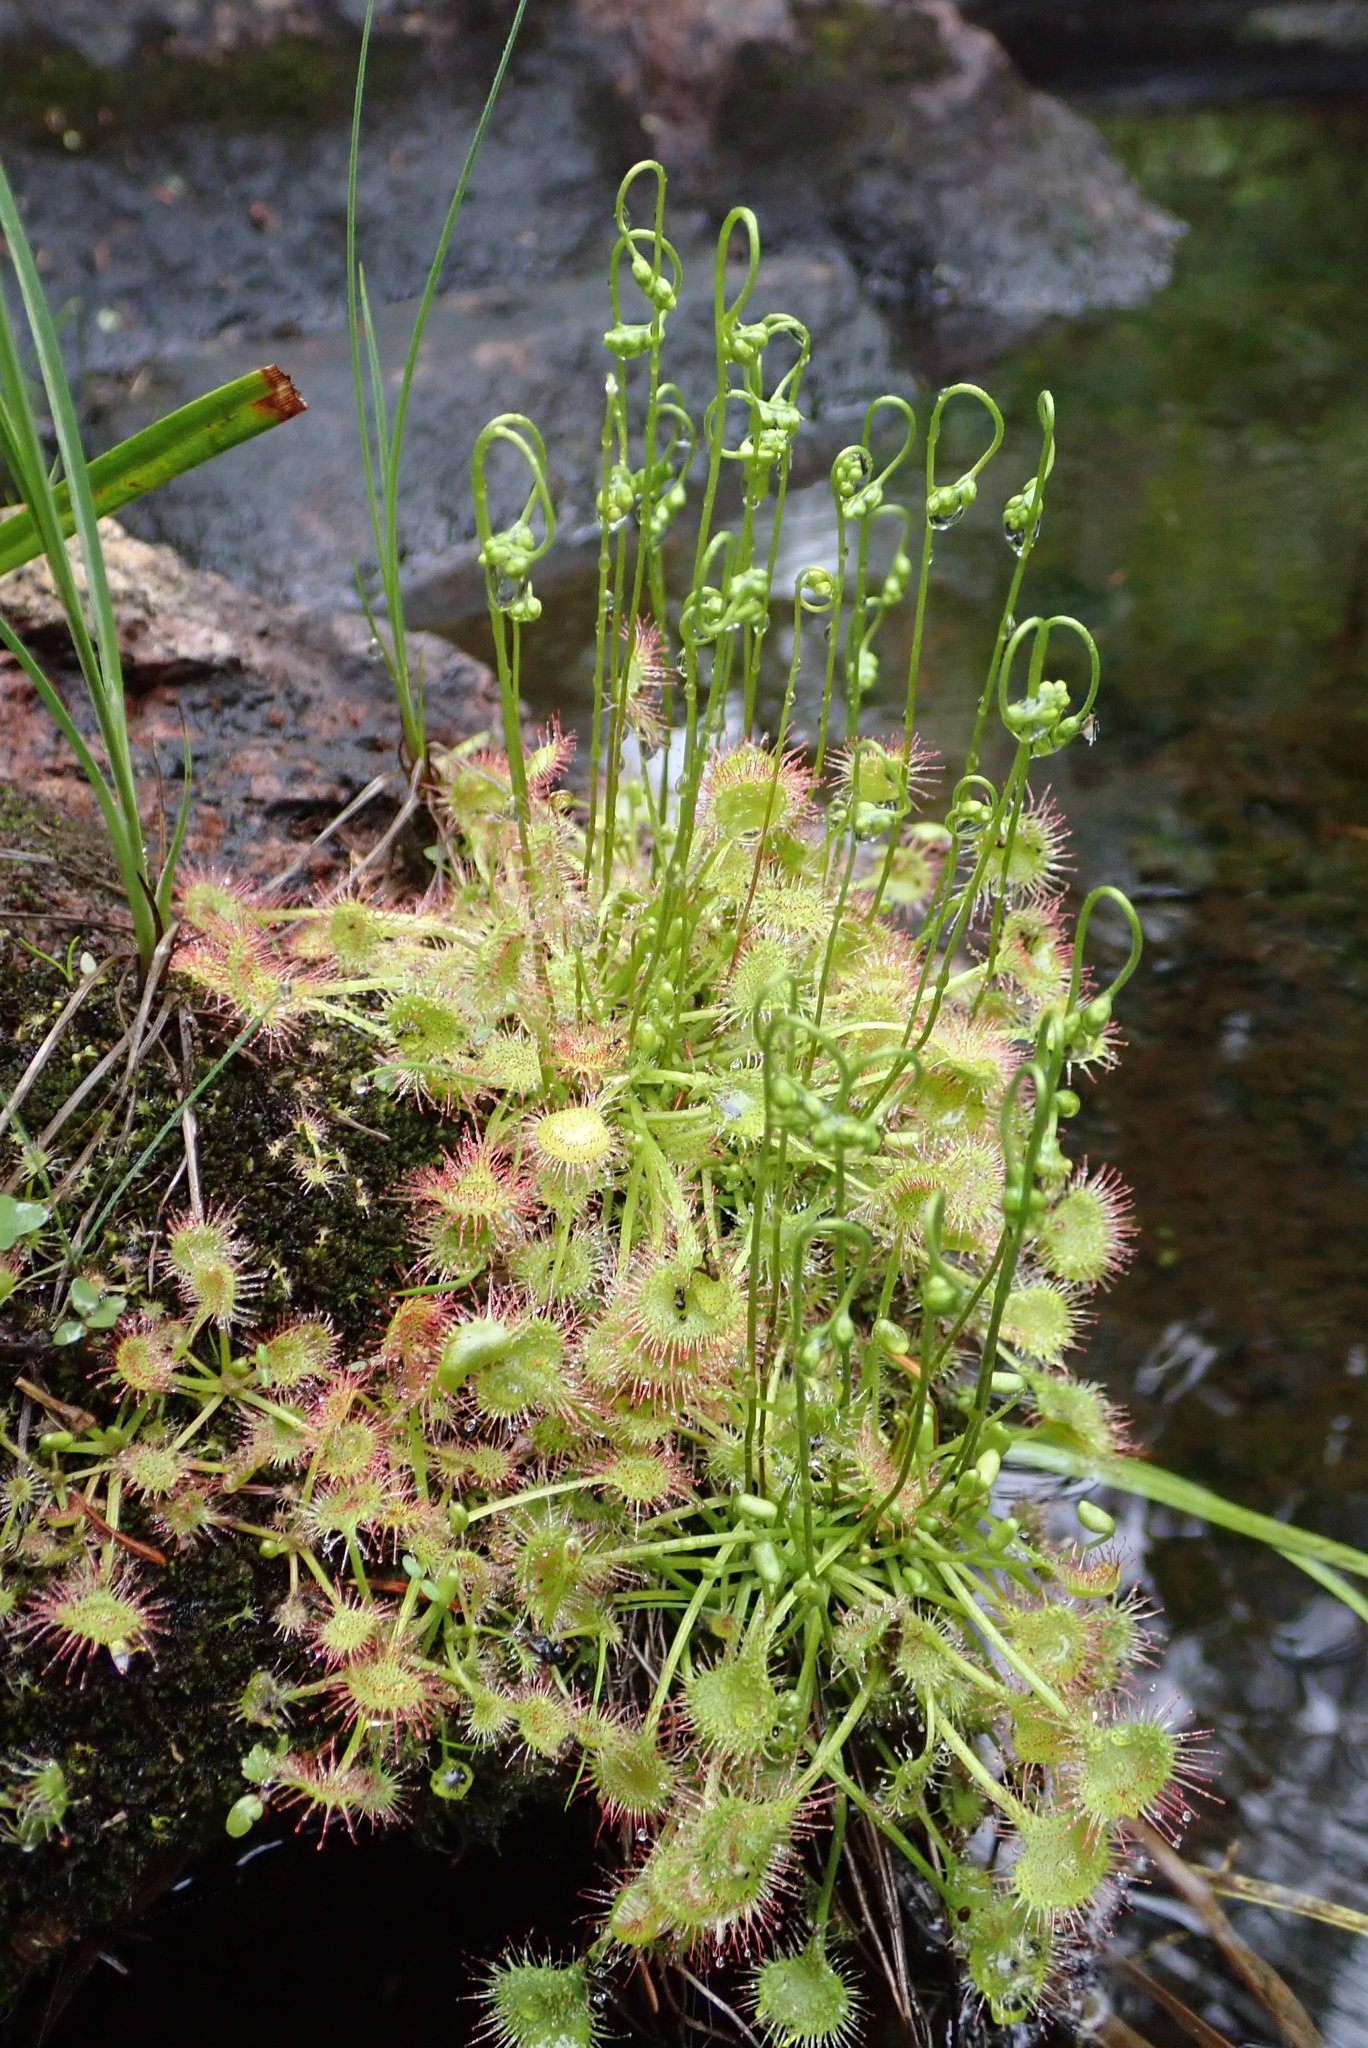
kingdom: Plantae
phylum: Tracheophyta
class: Magnoliopsida
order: Caryophyllales
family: Droseraceae
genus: Drosera
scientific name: Drosera rotundifolia
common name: Round-leaved sundew
